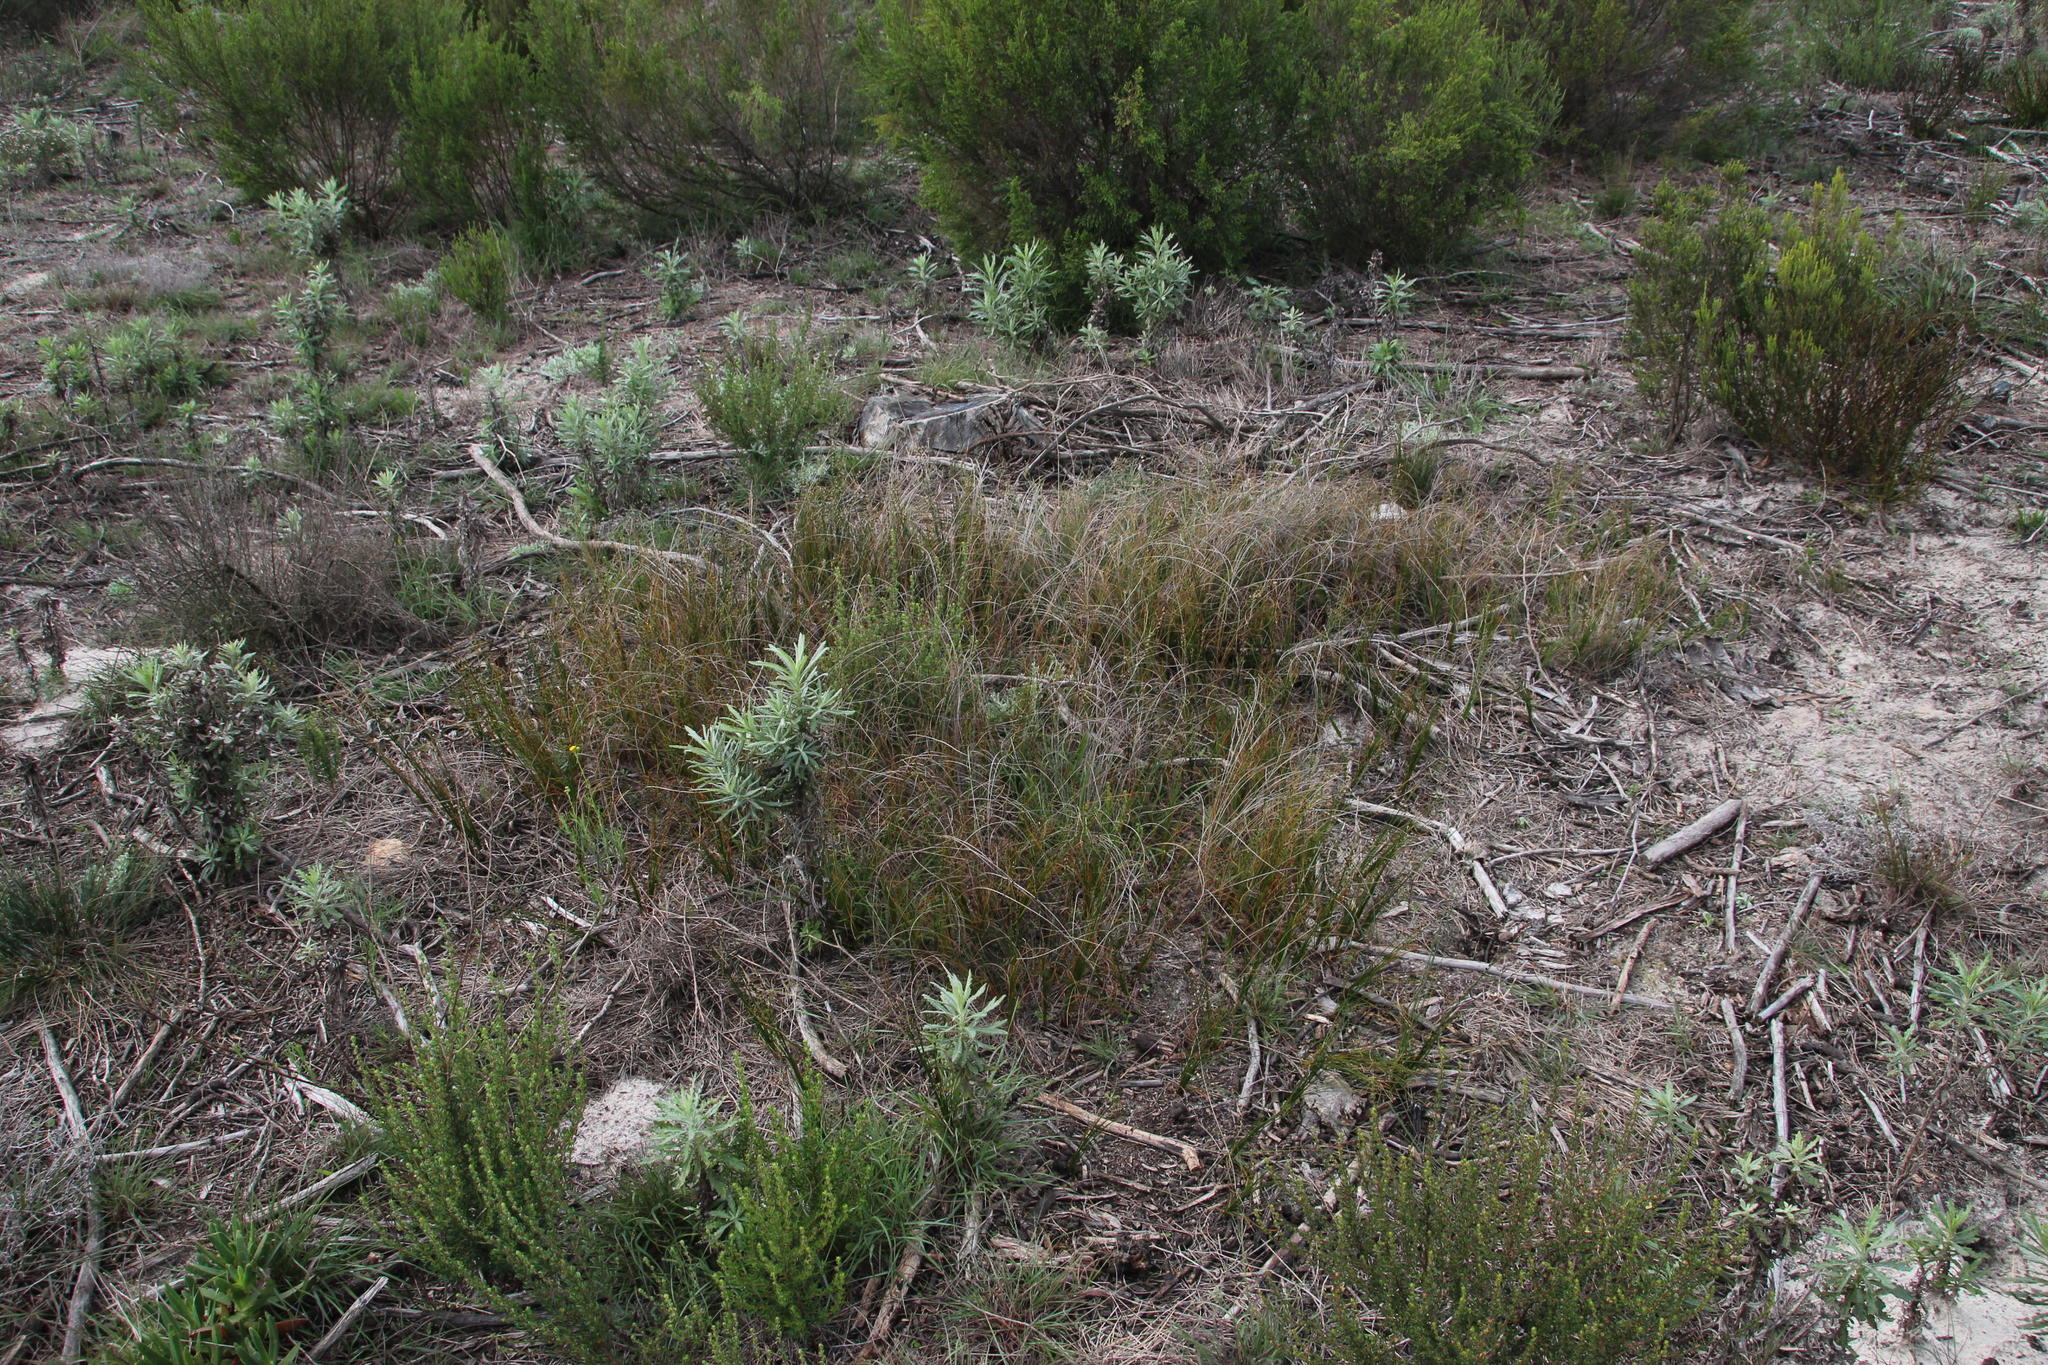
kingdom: Plantae
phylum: Tracheophyta
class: Magnoliopsida
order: Asterales
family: Asteraceae
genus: Senecio
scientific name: Senecio pterophorus
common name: Shoddy ragwort
